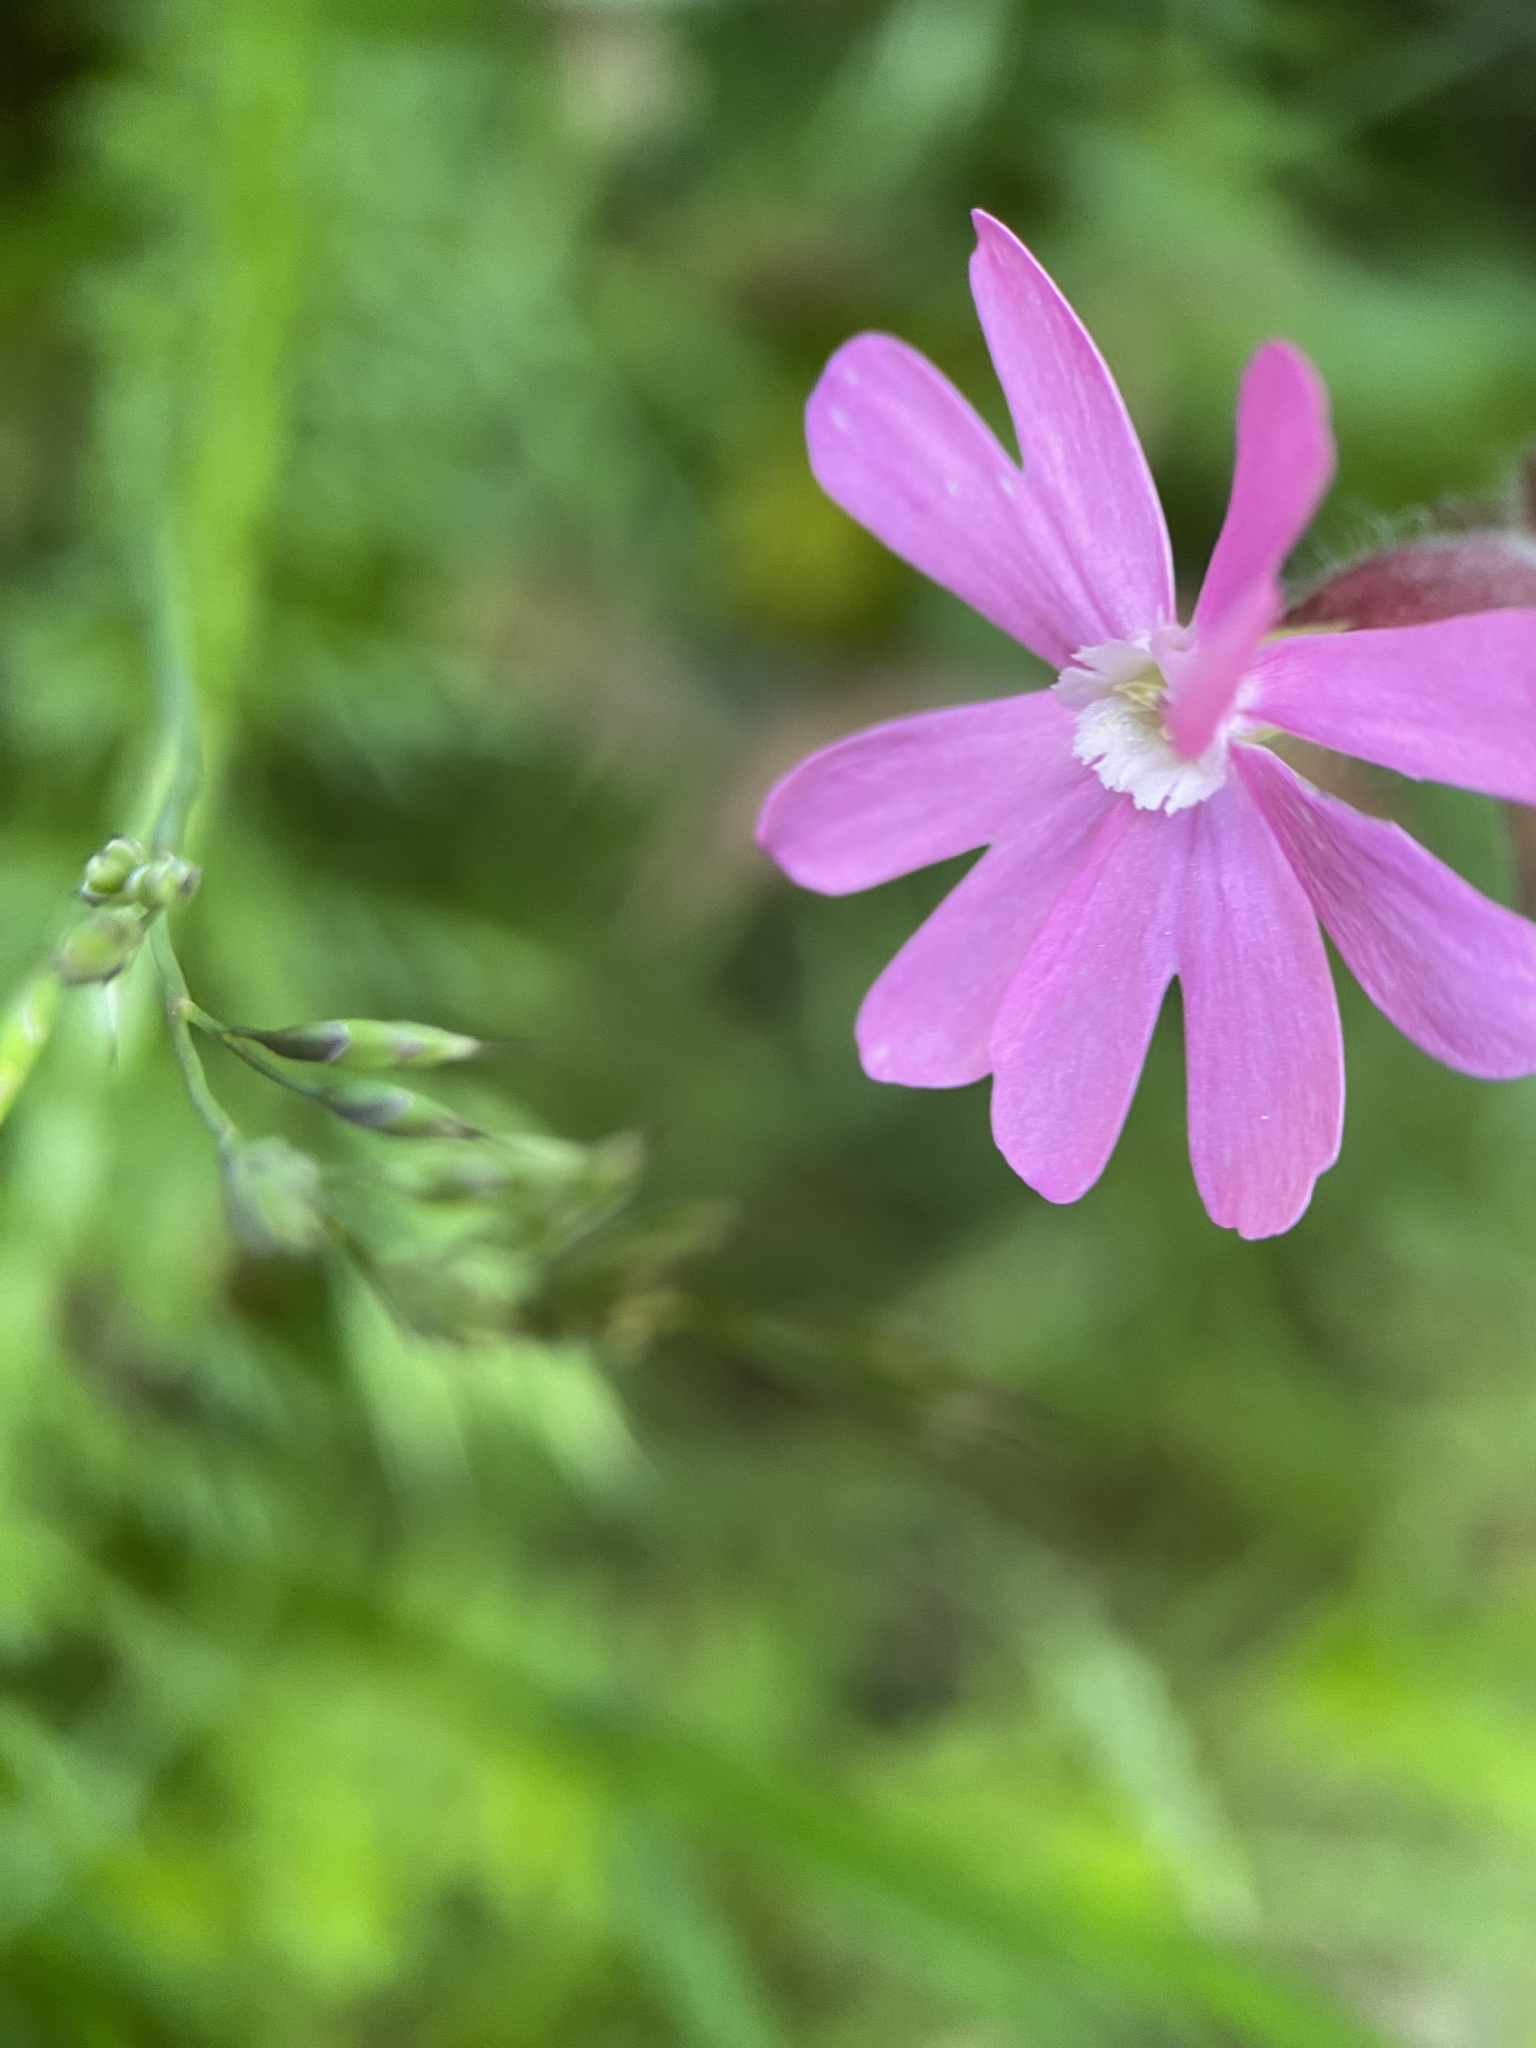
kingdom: Plantae
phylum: Tracheophyta
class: Magnoliopsida
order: Caryophyllales
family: Caryophyllaceae
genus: Silene
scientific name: Silene dioica
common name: Red campion
